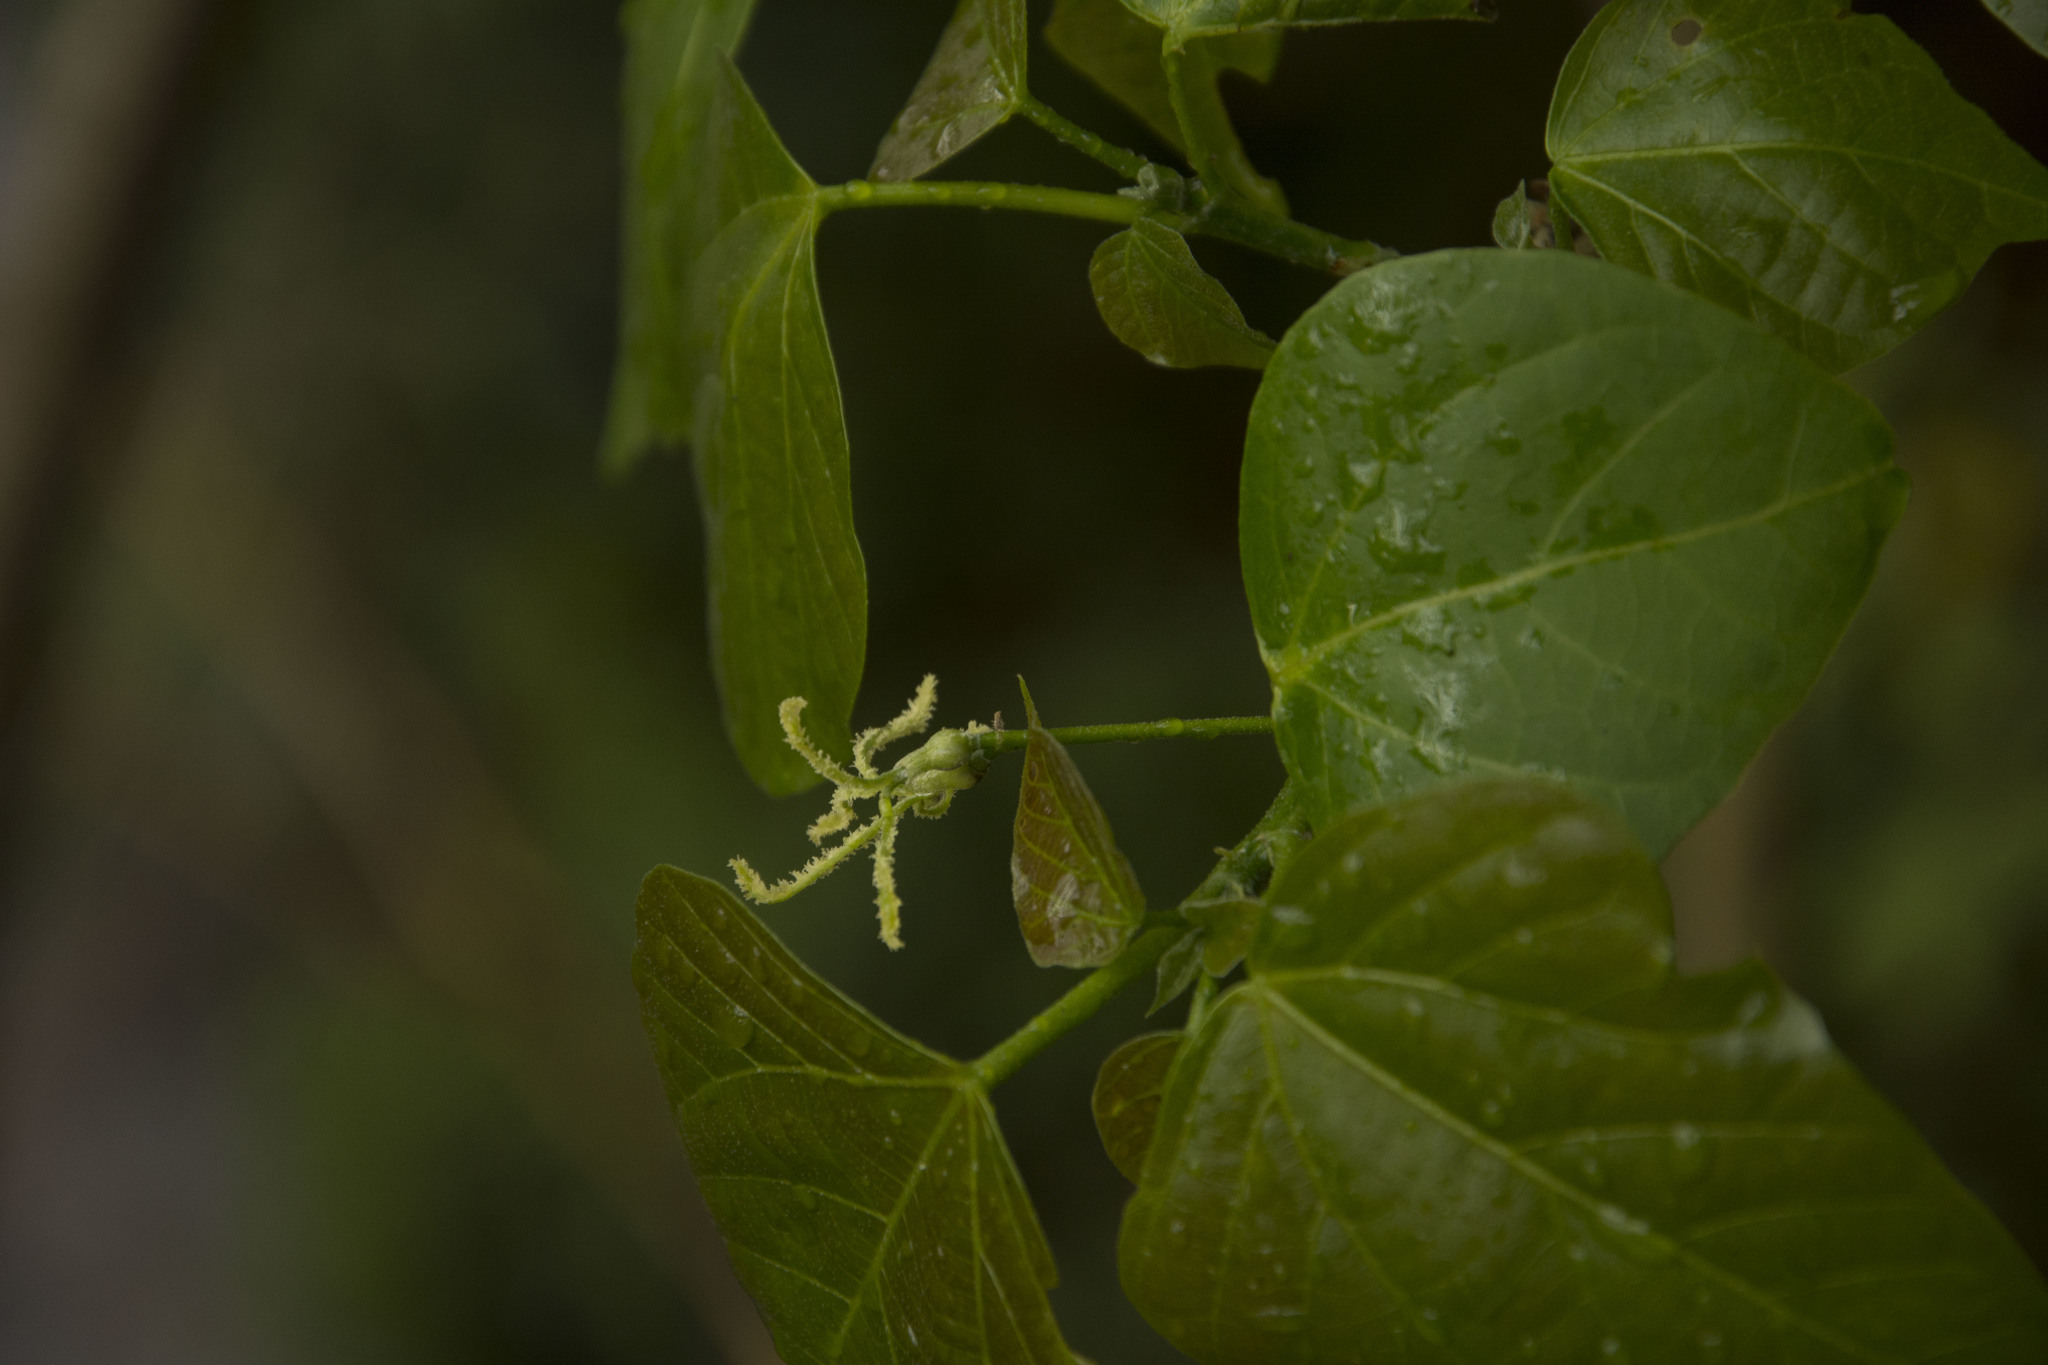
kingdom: Plantae
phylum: Tracheophyta
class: Magnoliopsida
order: Malpighiales
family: Euphorbiaceae
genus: Mallotus
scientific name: Mallotus nudiflorus
